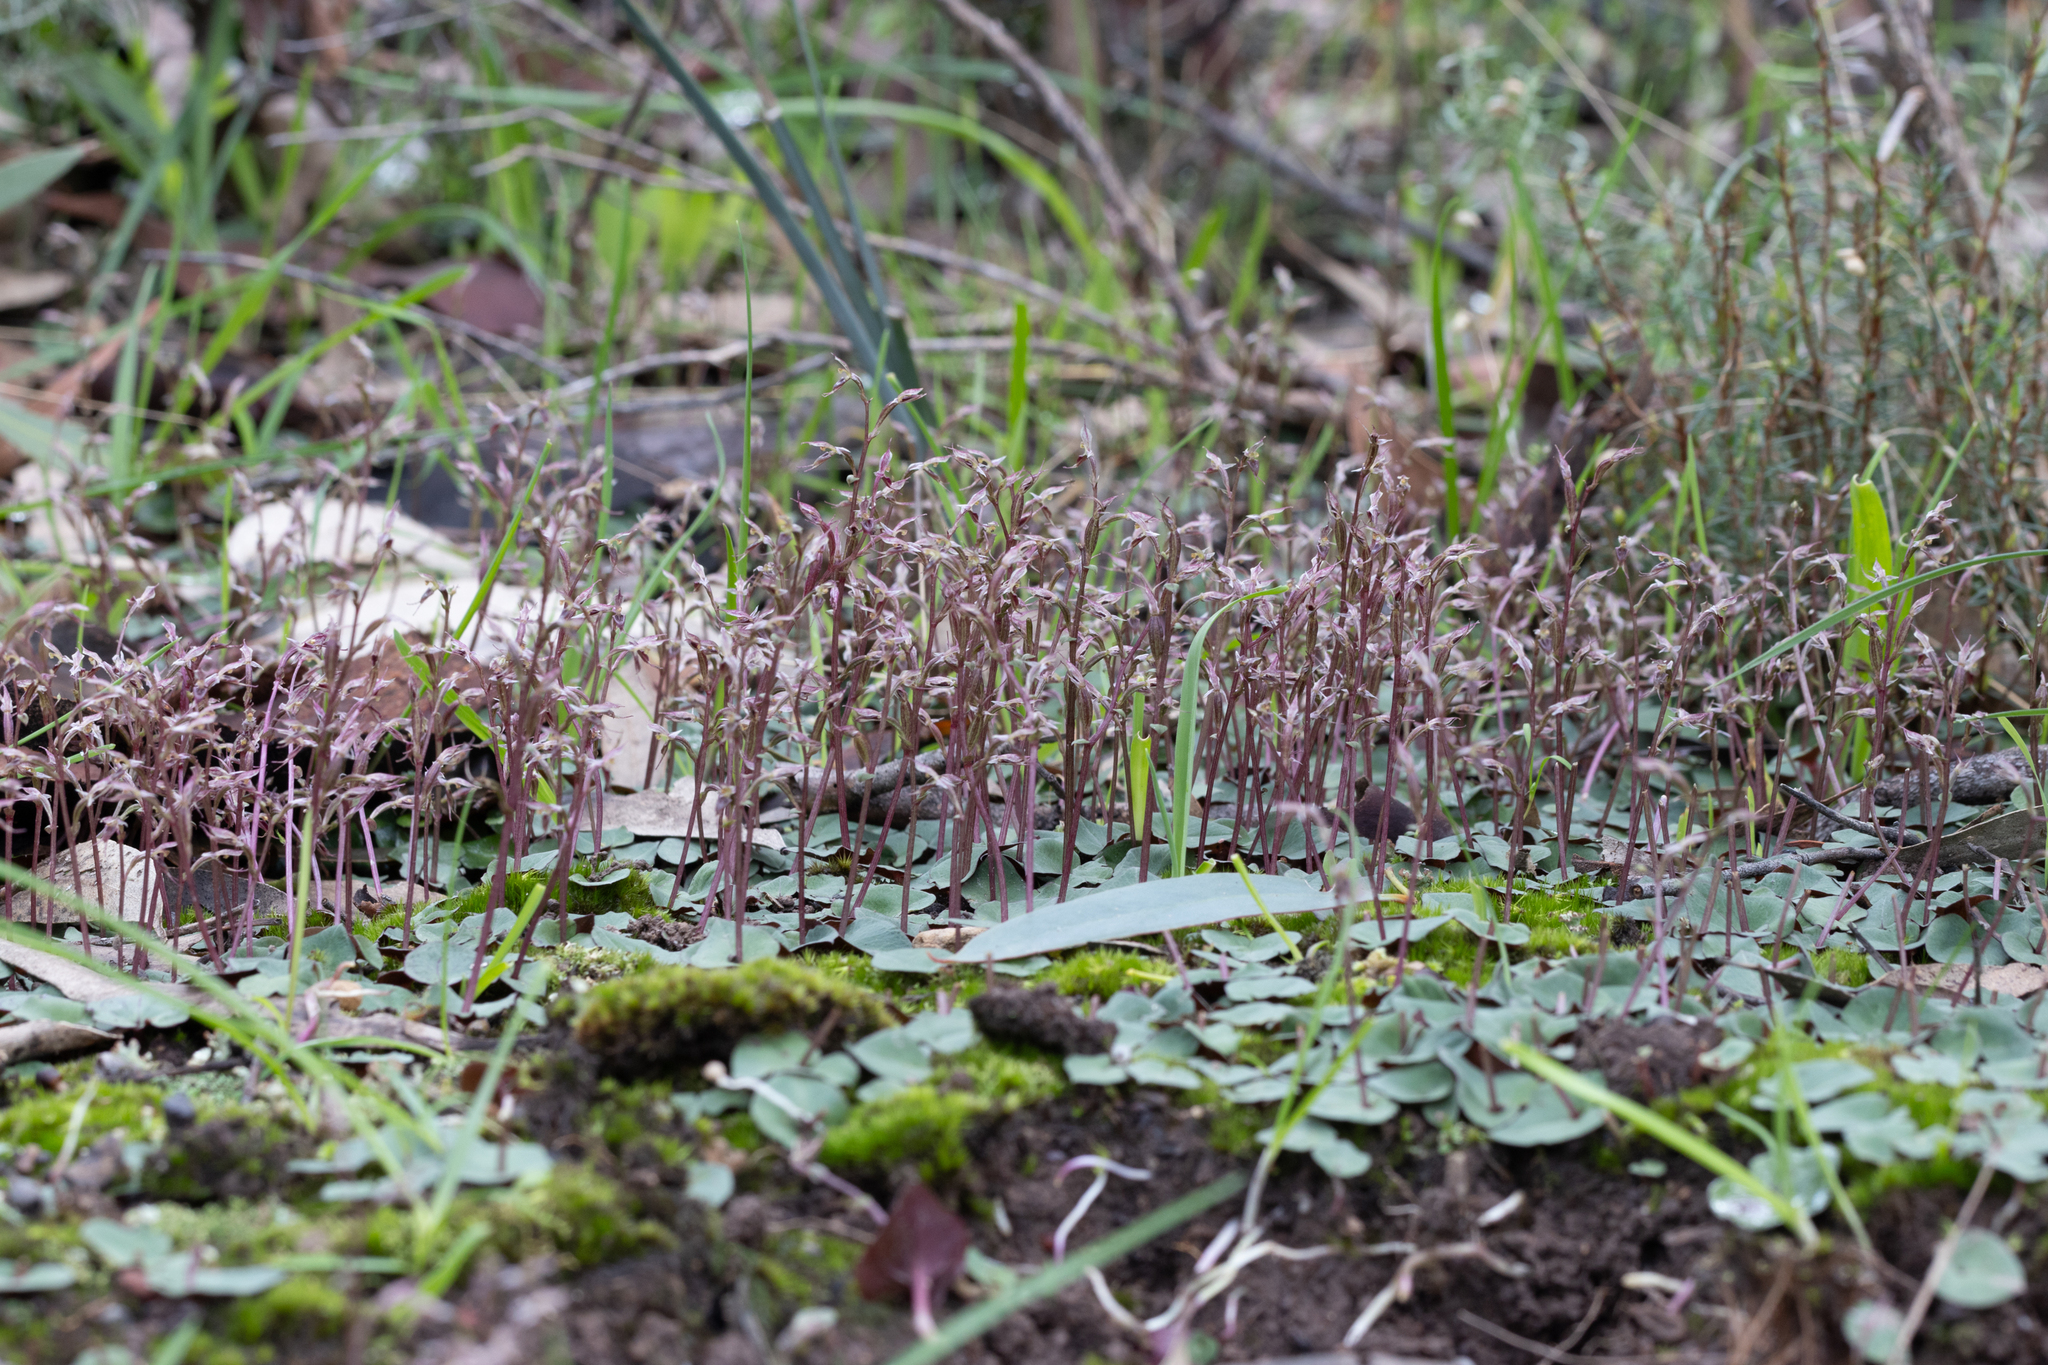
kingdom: Plantae
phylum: Tracheophyta
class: Liliopsida
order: Asparagales
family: Orchidaceae
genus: Acianthus
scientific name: Acianthus pusillus
